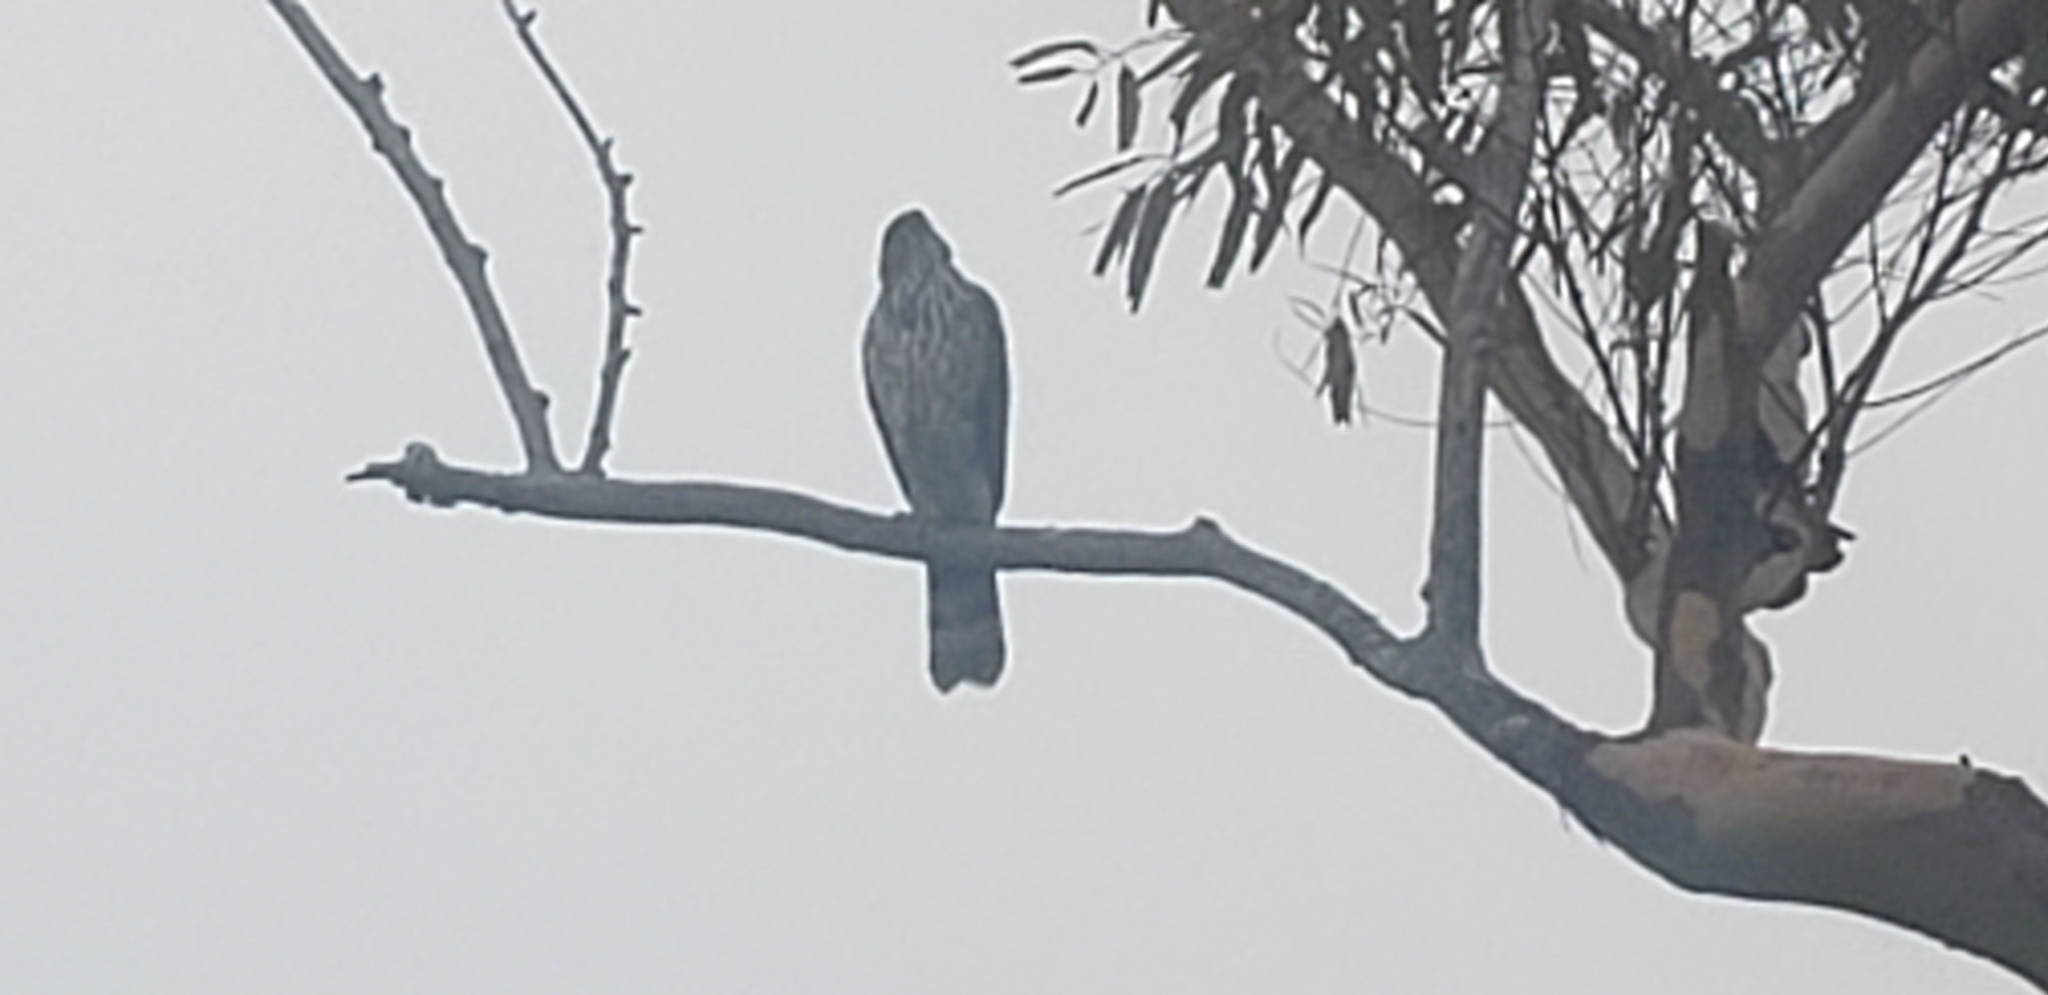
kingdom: Animalia
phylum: Chordata
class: Aves
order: Accipitriformes
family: Accipitridae
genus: Accipiter
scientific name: Accipiter cooperii
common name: Cooper's hawk
